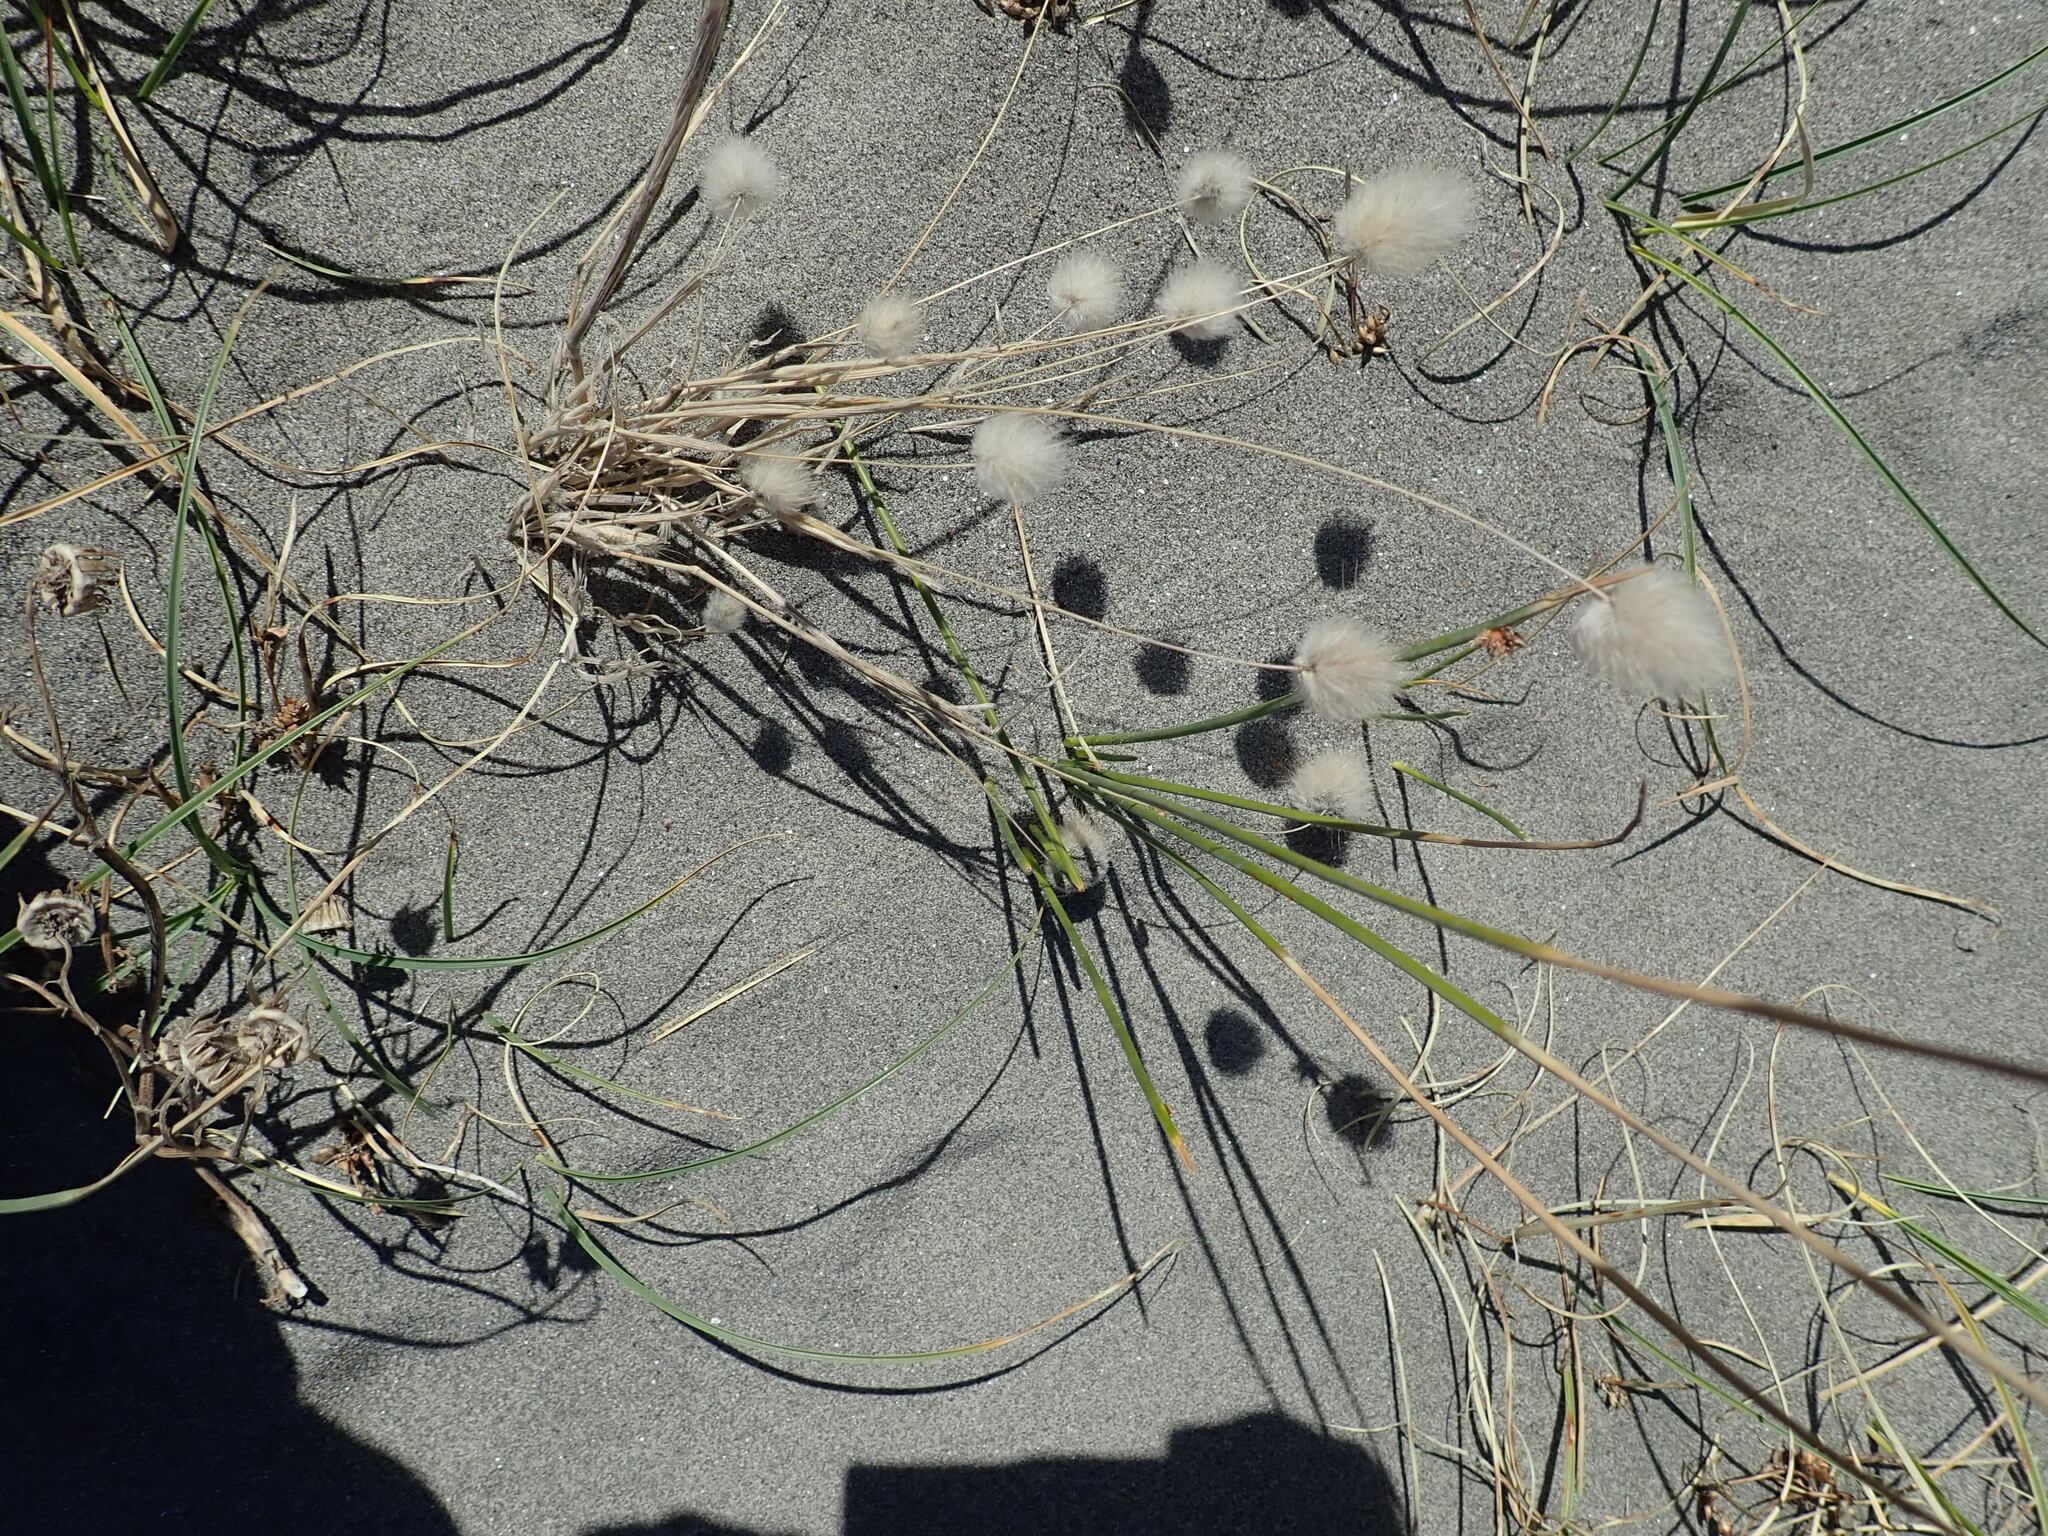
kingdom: Plantae
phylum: Tracheophyta
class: Liliopsida
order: Poales
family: Poaceae
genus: Lagurus
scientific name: Lagurus ovatus
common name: Hare's-tail
